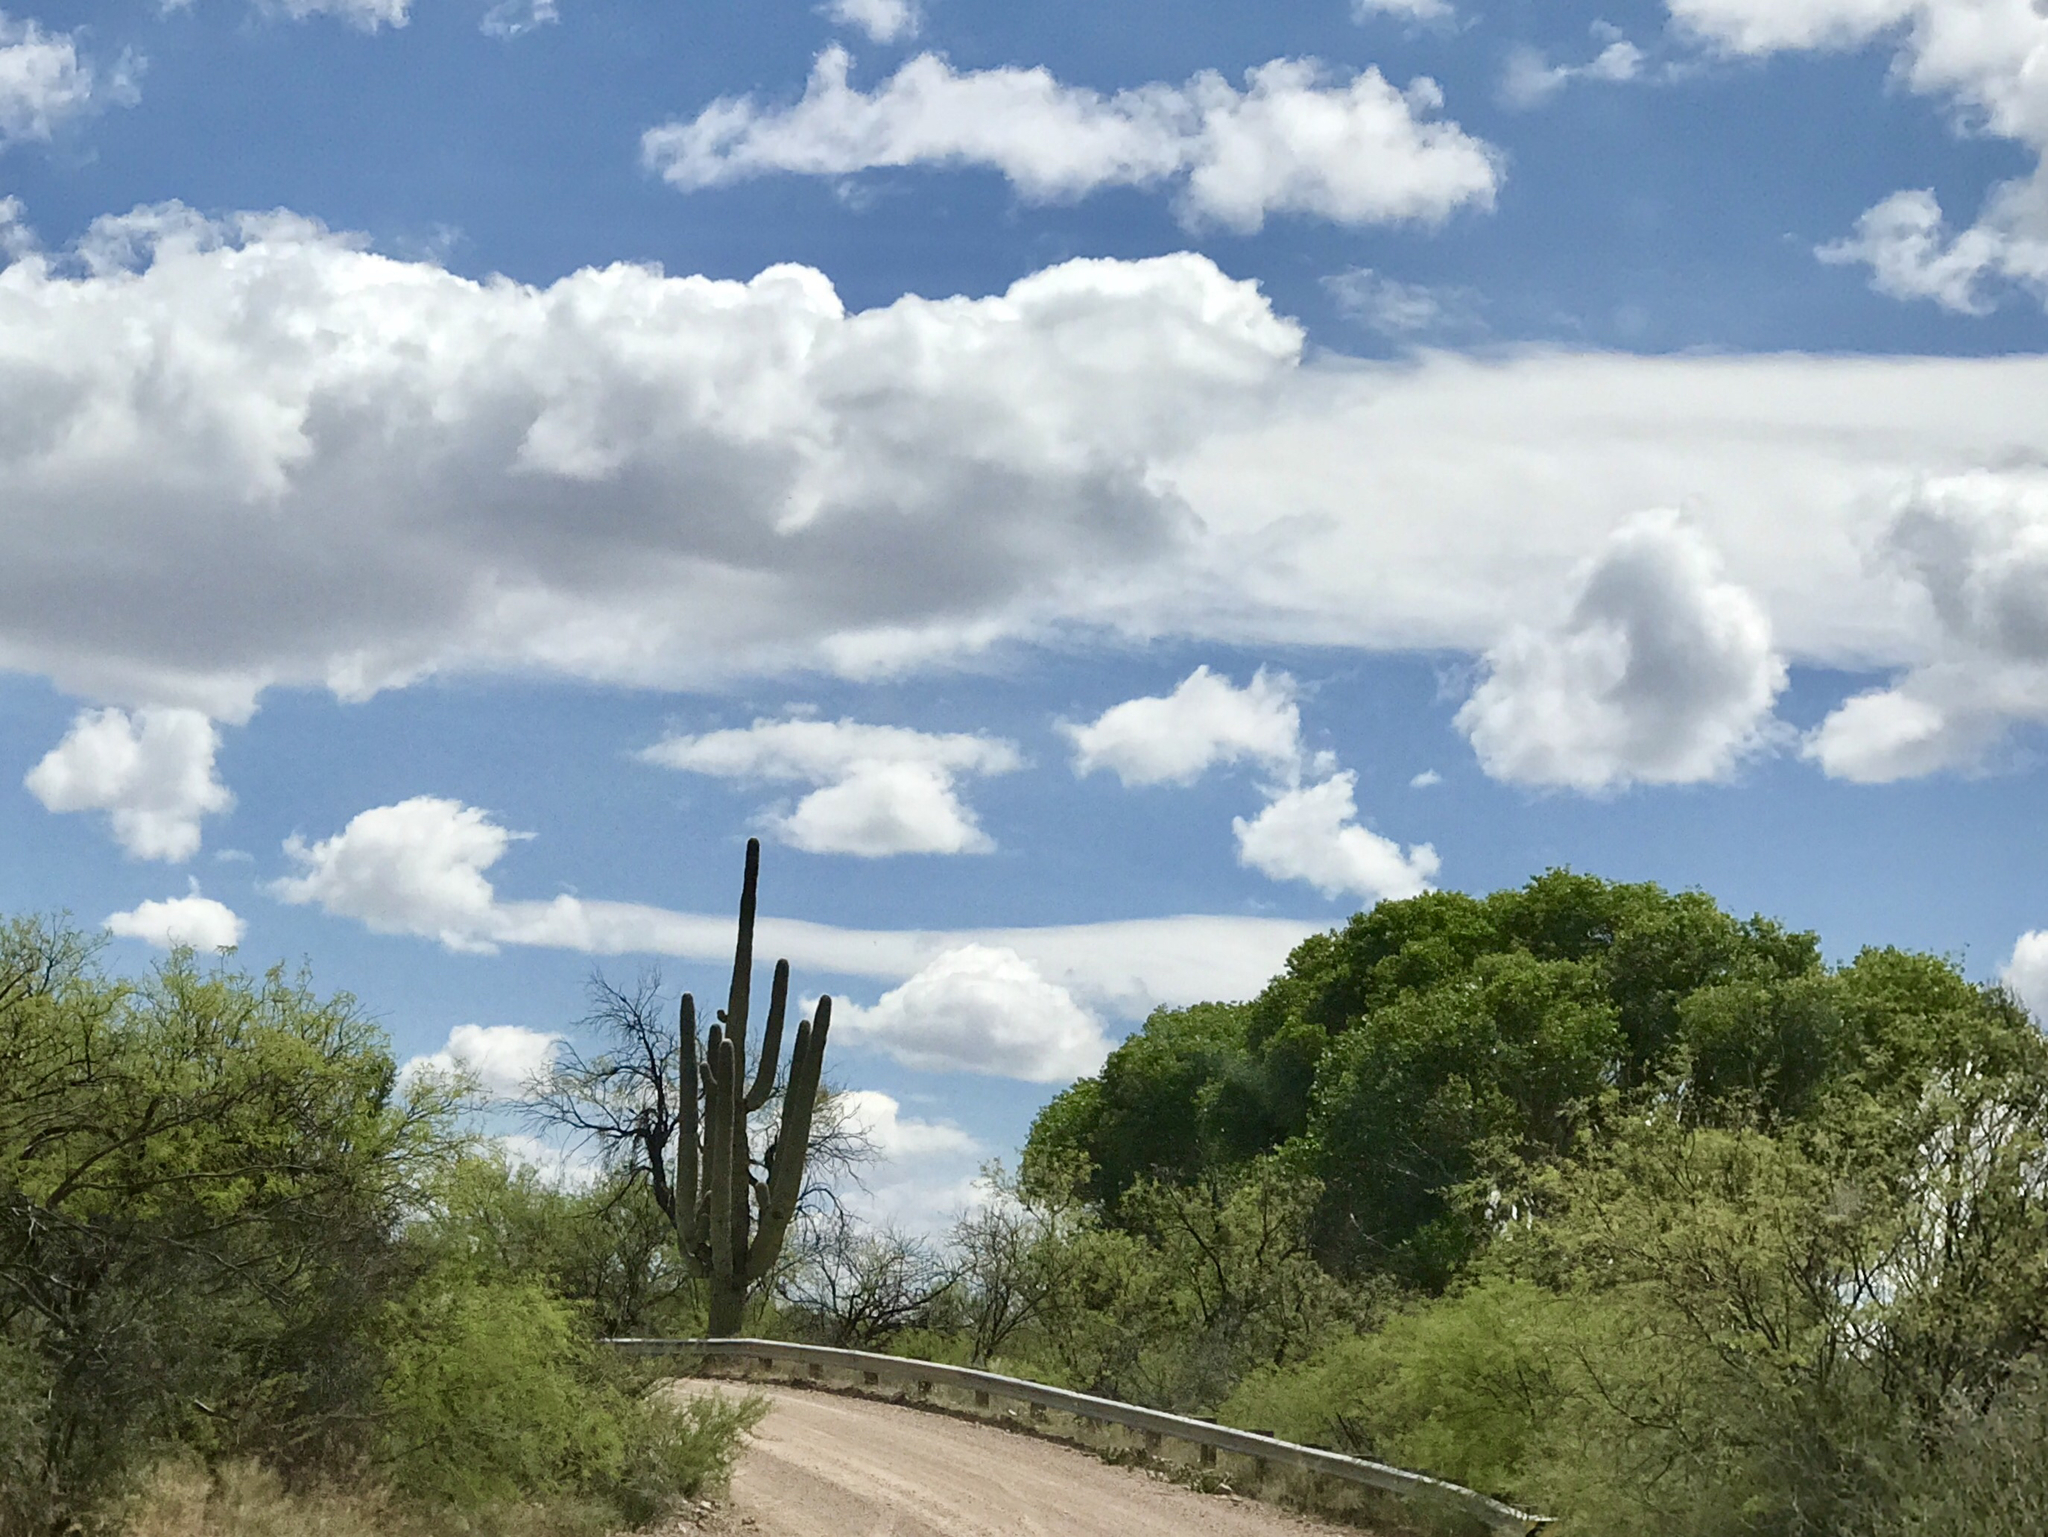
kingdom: Plantae
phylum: Tracheophyta
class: Magnoliopsida
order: Caryophyllales
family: Cactaceae
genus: Carnegiea
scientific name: Carnegiea gigantea
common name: Saguaro
